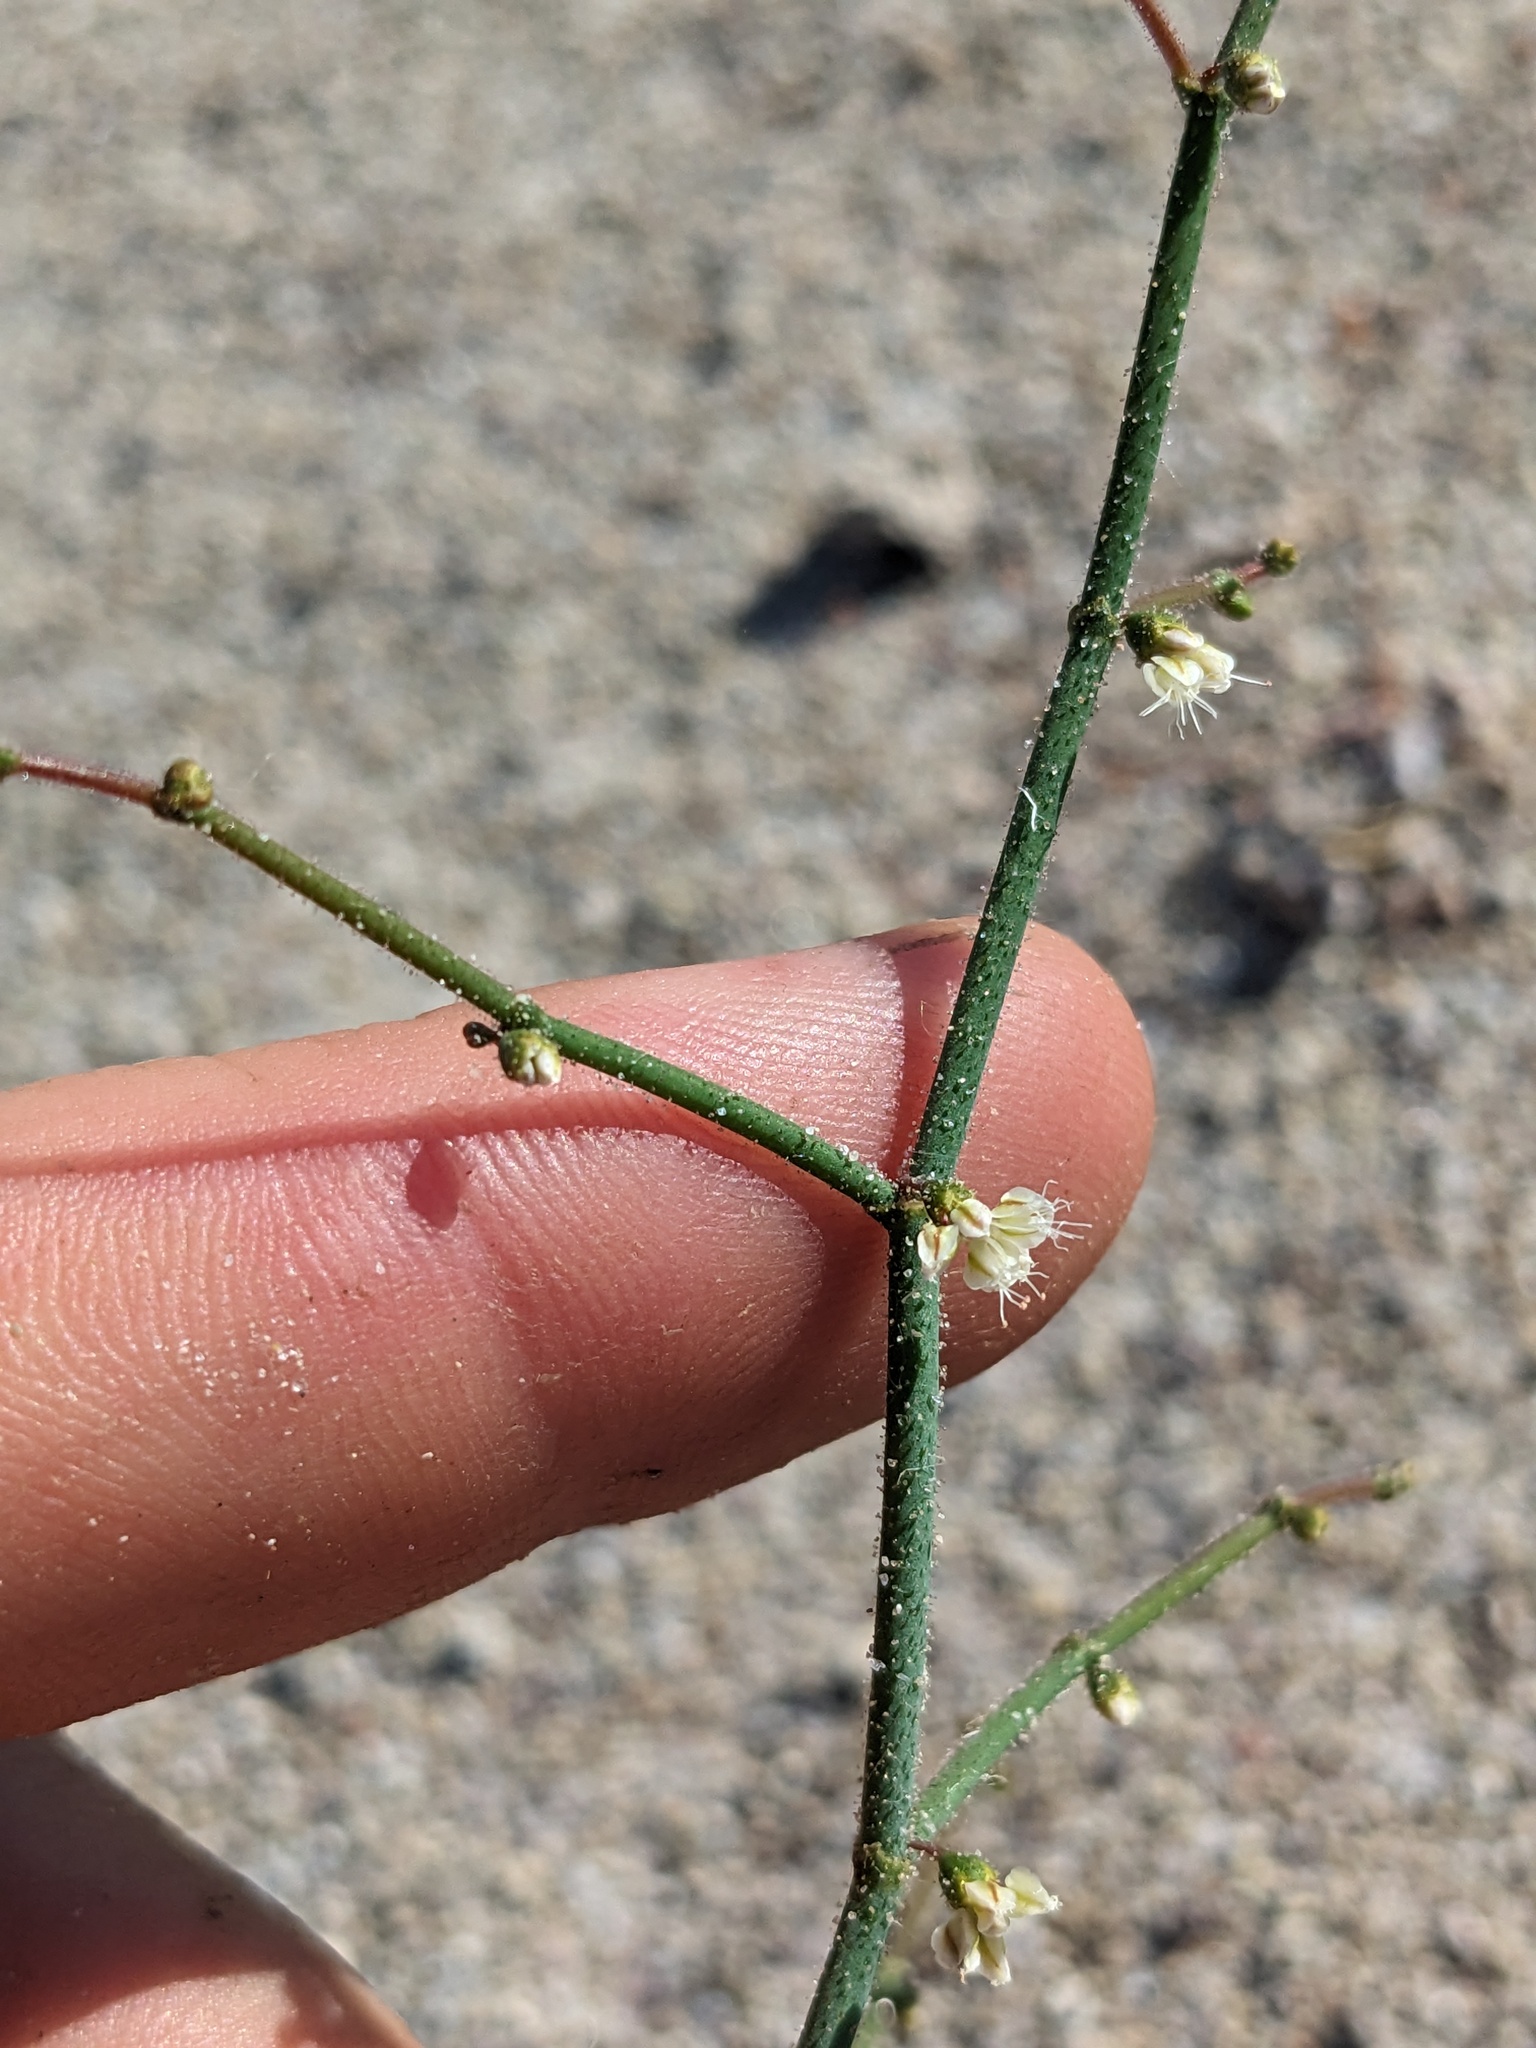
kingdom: Plantae
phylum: Tracheophyta
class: Magnoliopsida
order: Caryophyllales
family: Polygonaceae
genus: Eriogonum
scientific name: Eriogonum brachypodum
